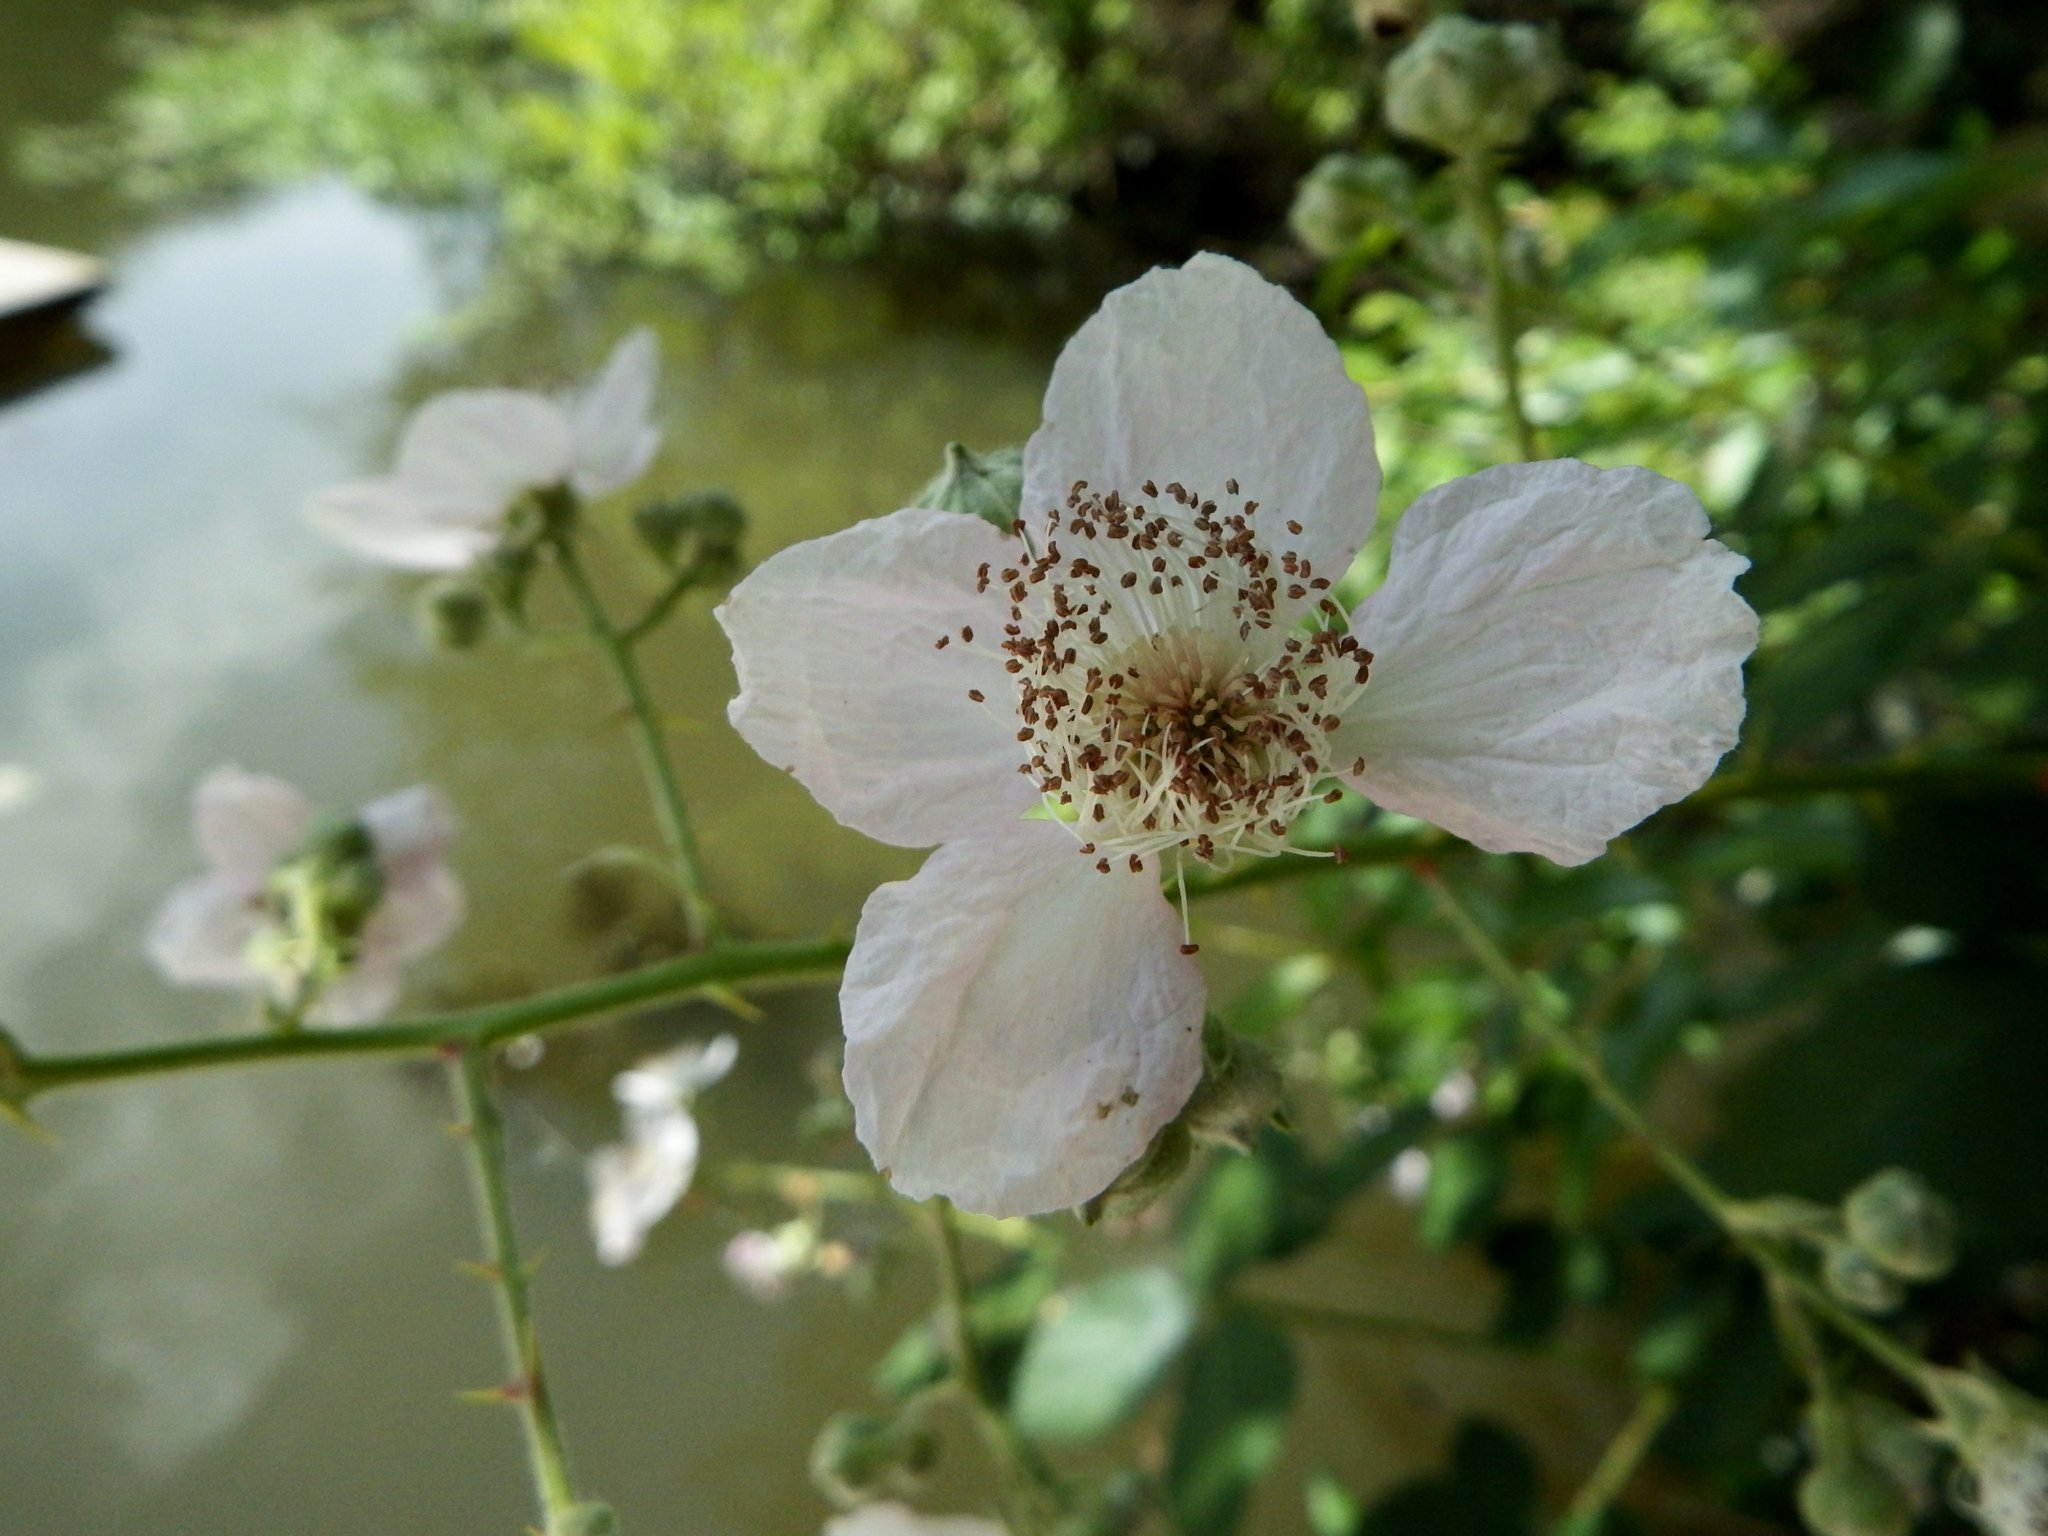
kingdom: Plantae
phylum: Tracheophyta
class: Magnoliopsida
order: Rosales
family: Rosaceae
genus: Rubus
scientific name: Rubus armeniacus
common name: Himalayan blackberry
